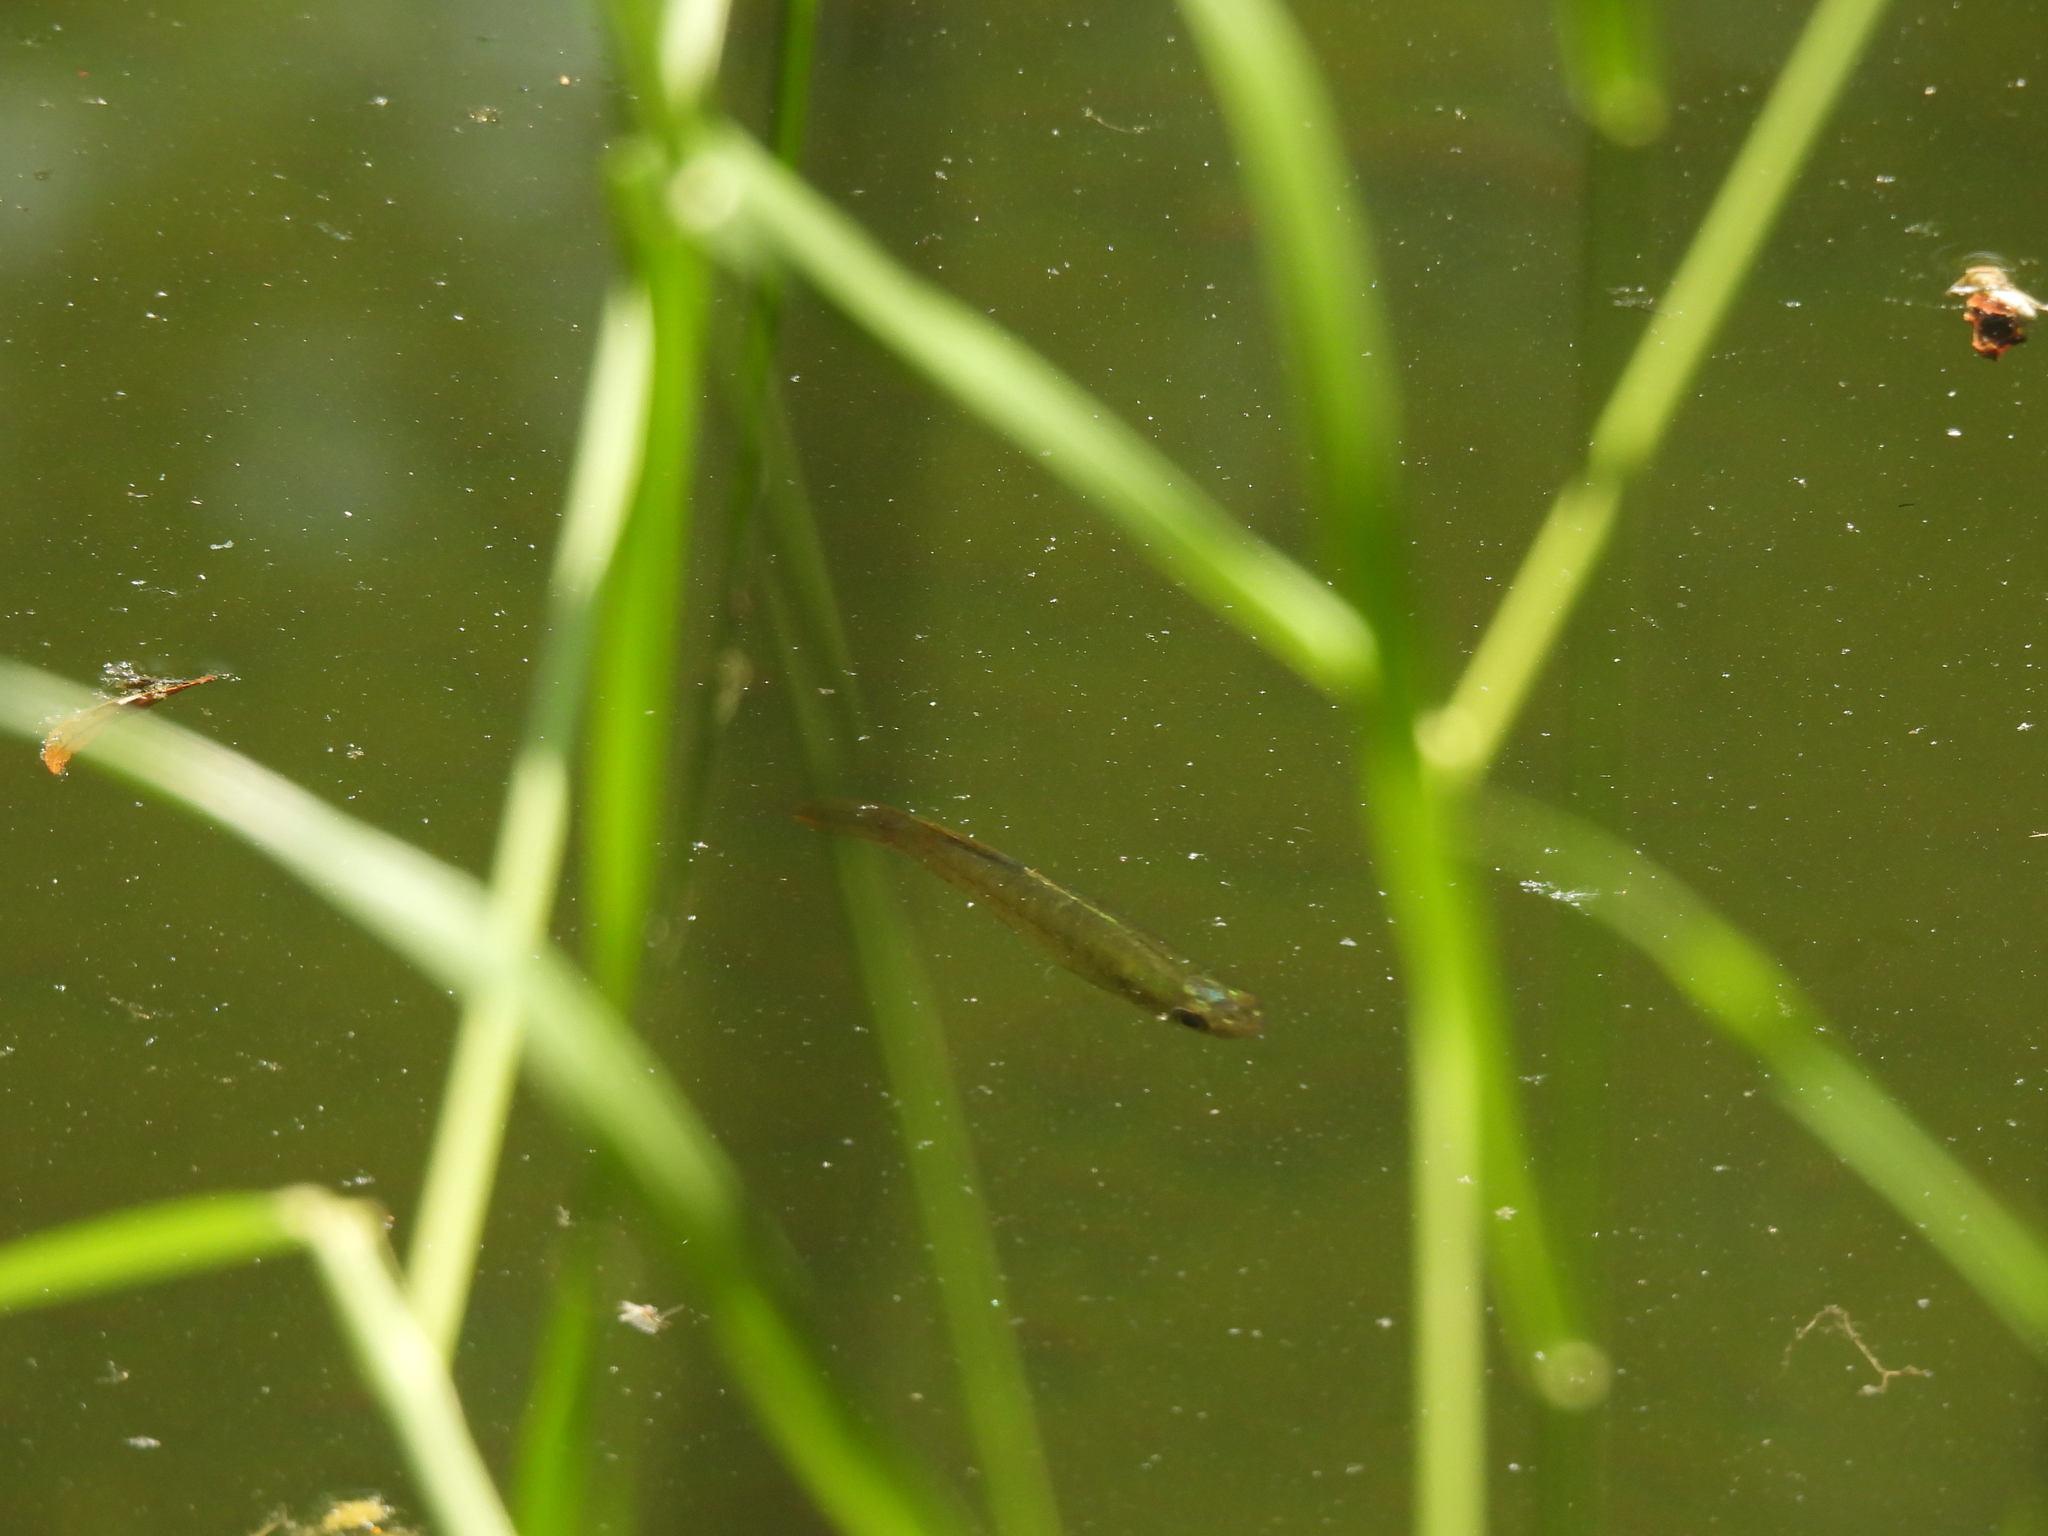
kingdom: Animalia
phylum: Chordata
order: Cyprinodontiformes
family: Fundulidae
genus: Fundulus
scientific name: Fundulus chrysotus
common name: Golden topminnow
